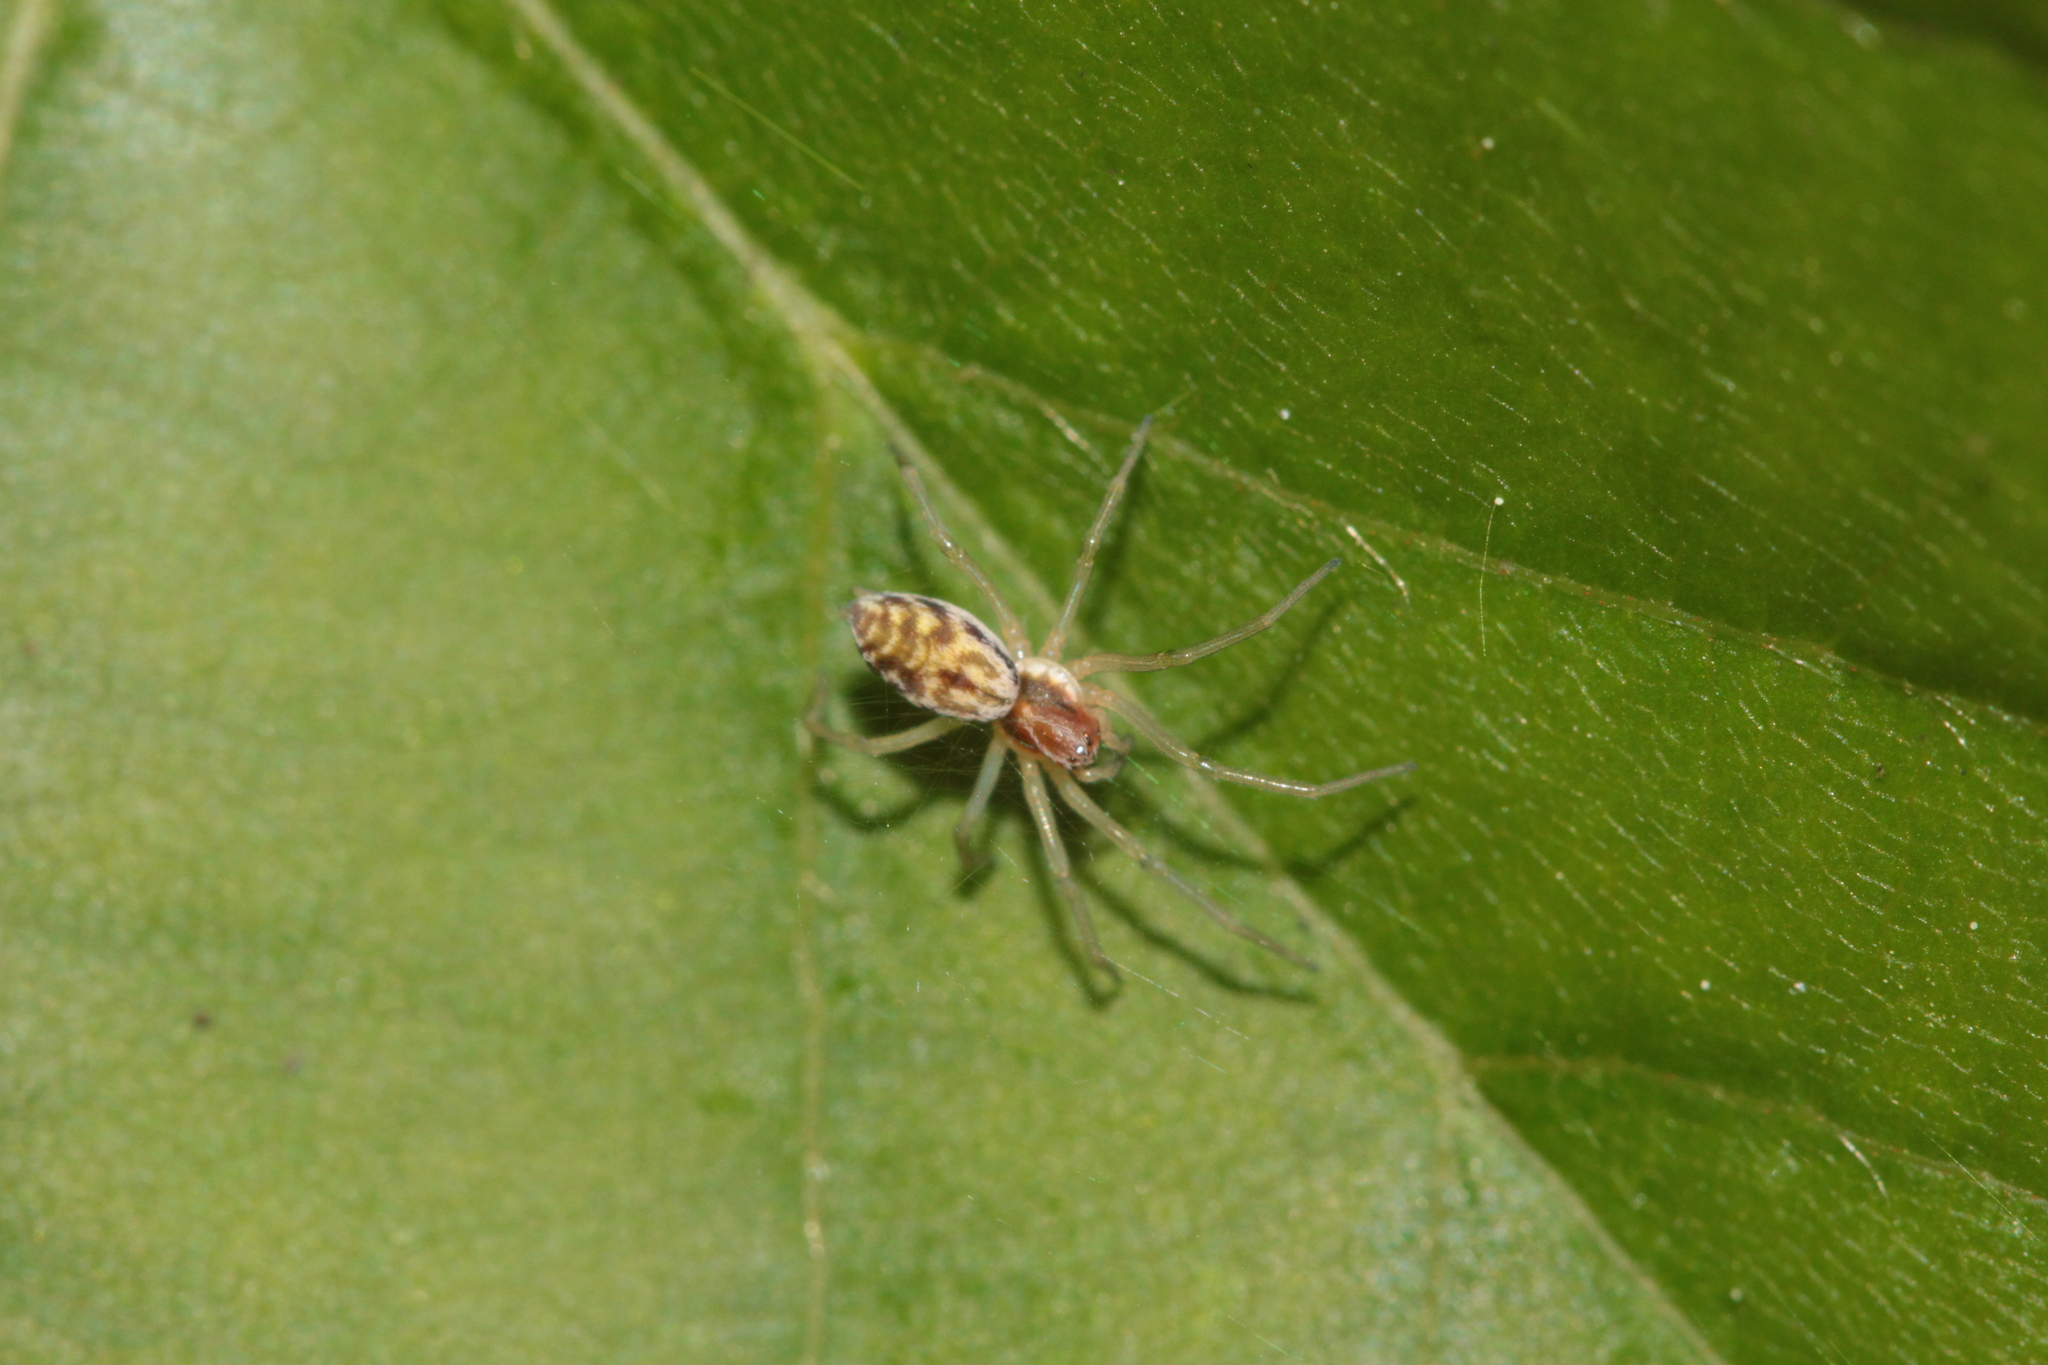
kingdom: Animalia
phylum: Arthropoda
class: Arachnida
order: Araneae
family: Dictynidae
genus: Nigma
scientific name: Nigma flavescens
